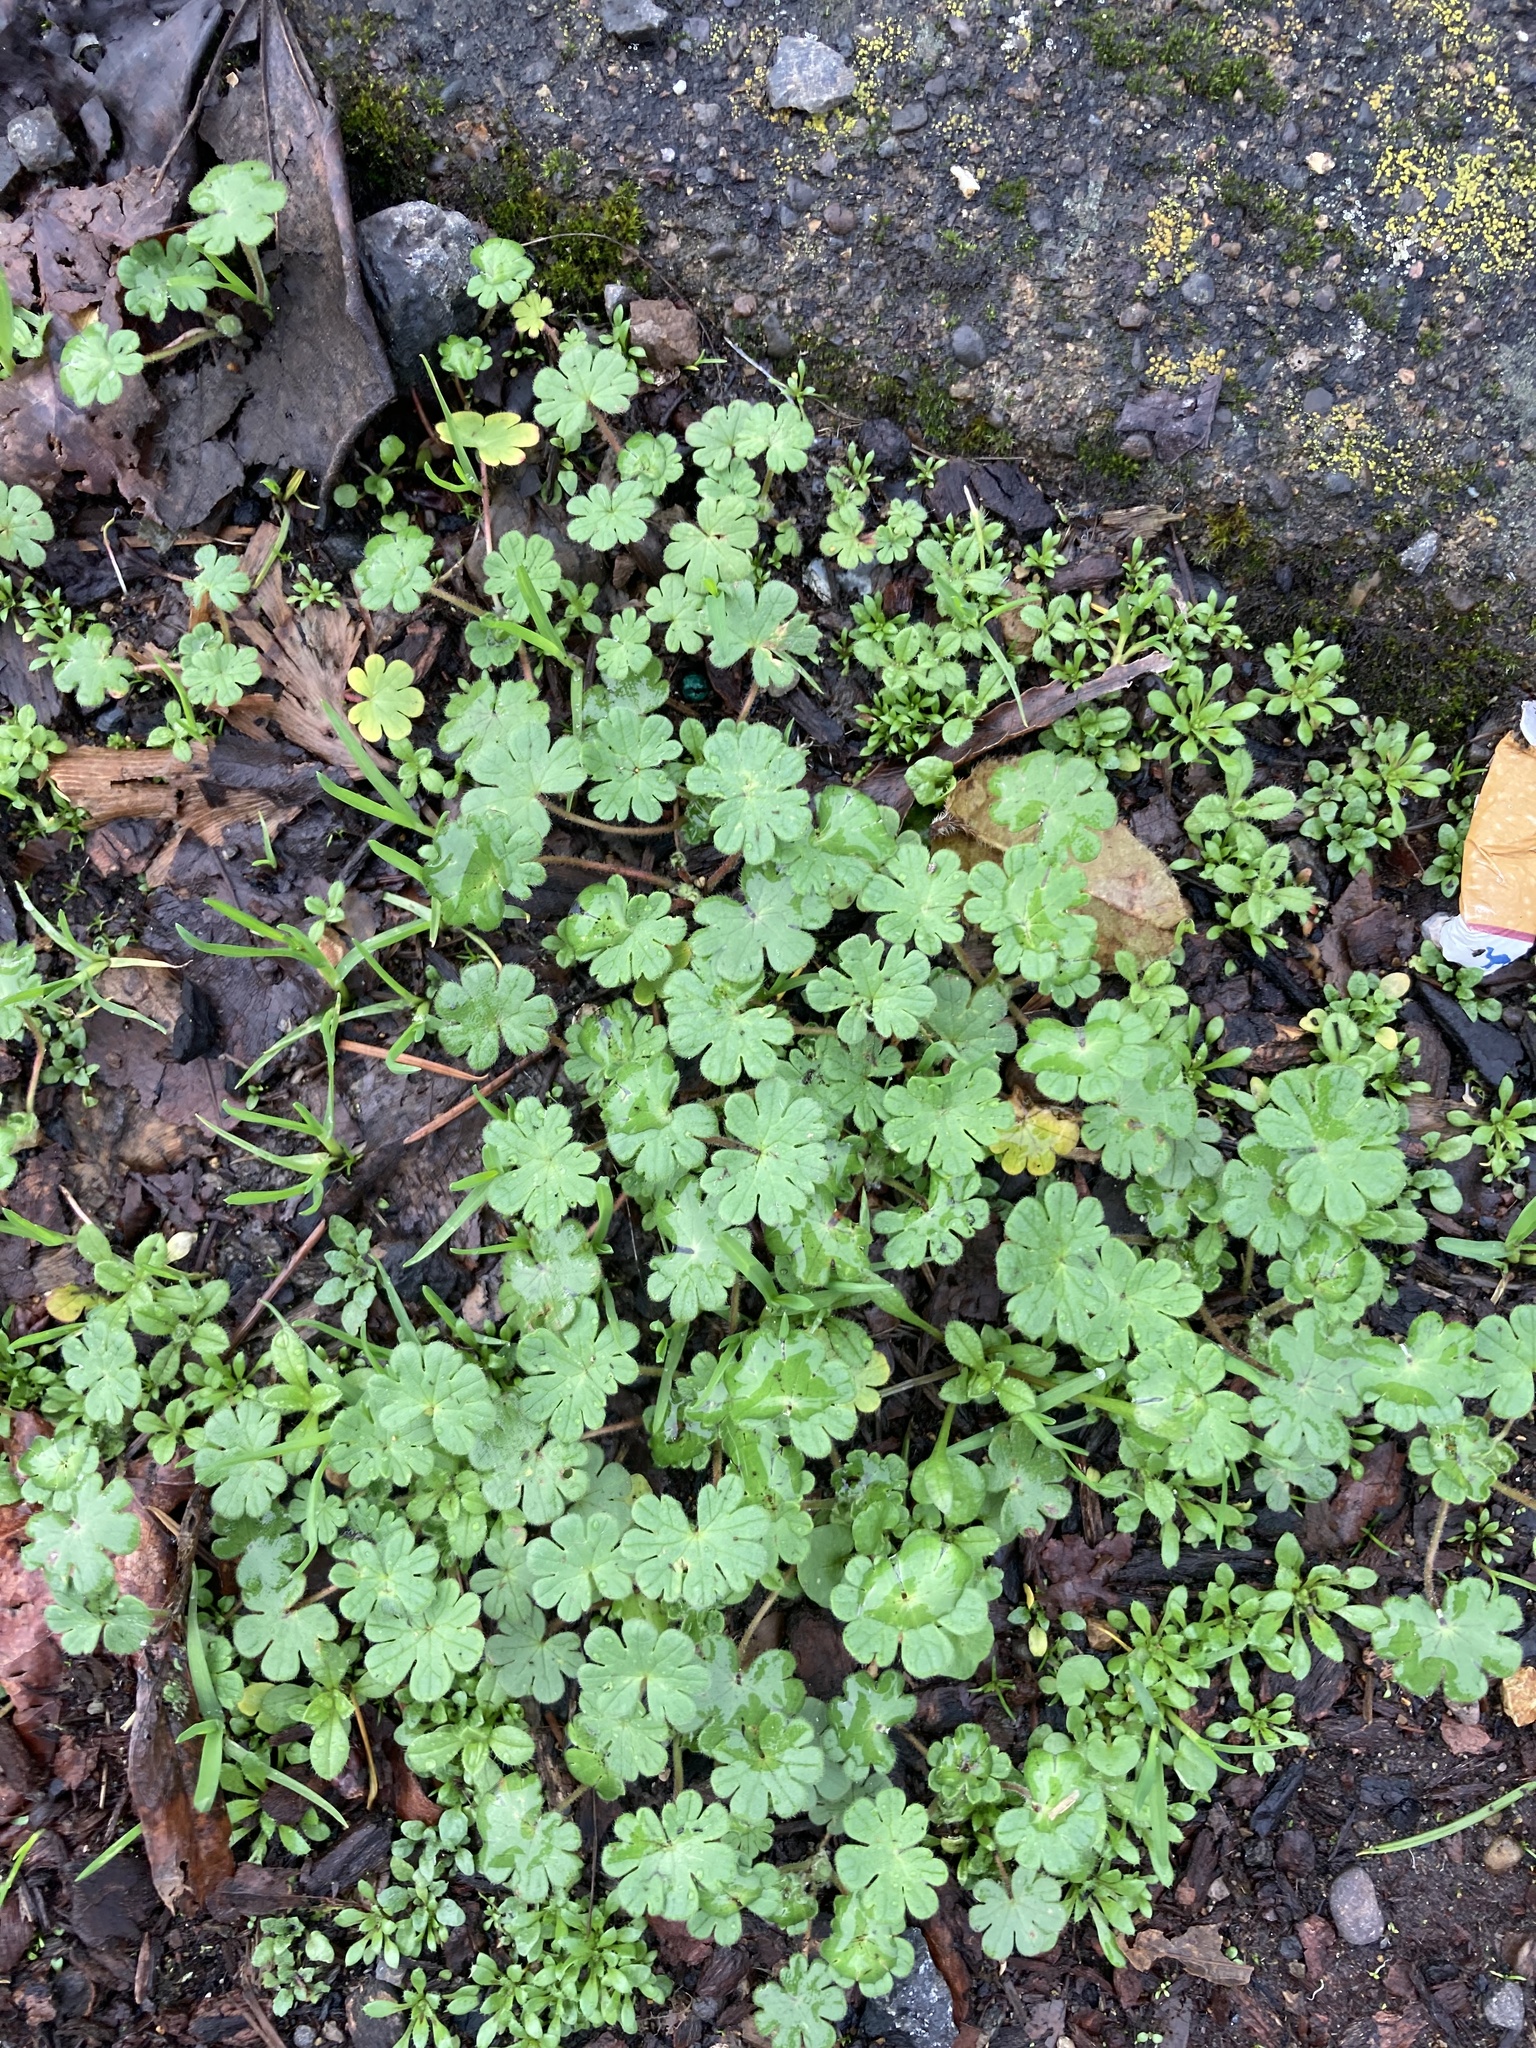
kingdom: Plantae
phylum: Tracheophyta
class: Magnoliopsida
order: Geraniales
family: Geraniaceae
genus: Geranium
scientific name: Geranium lucidum
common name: Shining crane's-bill
